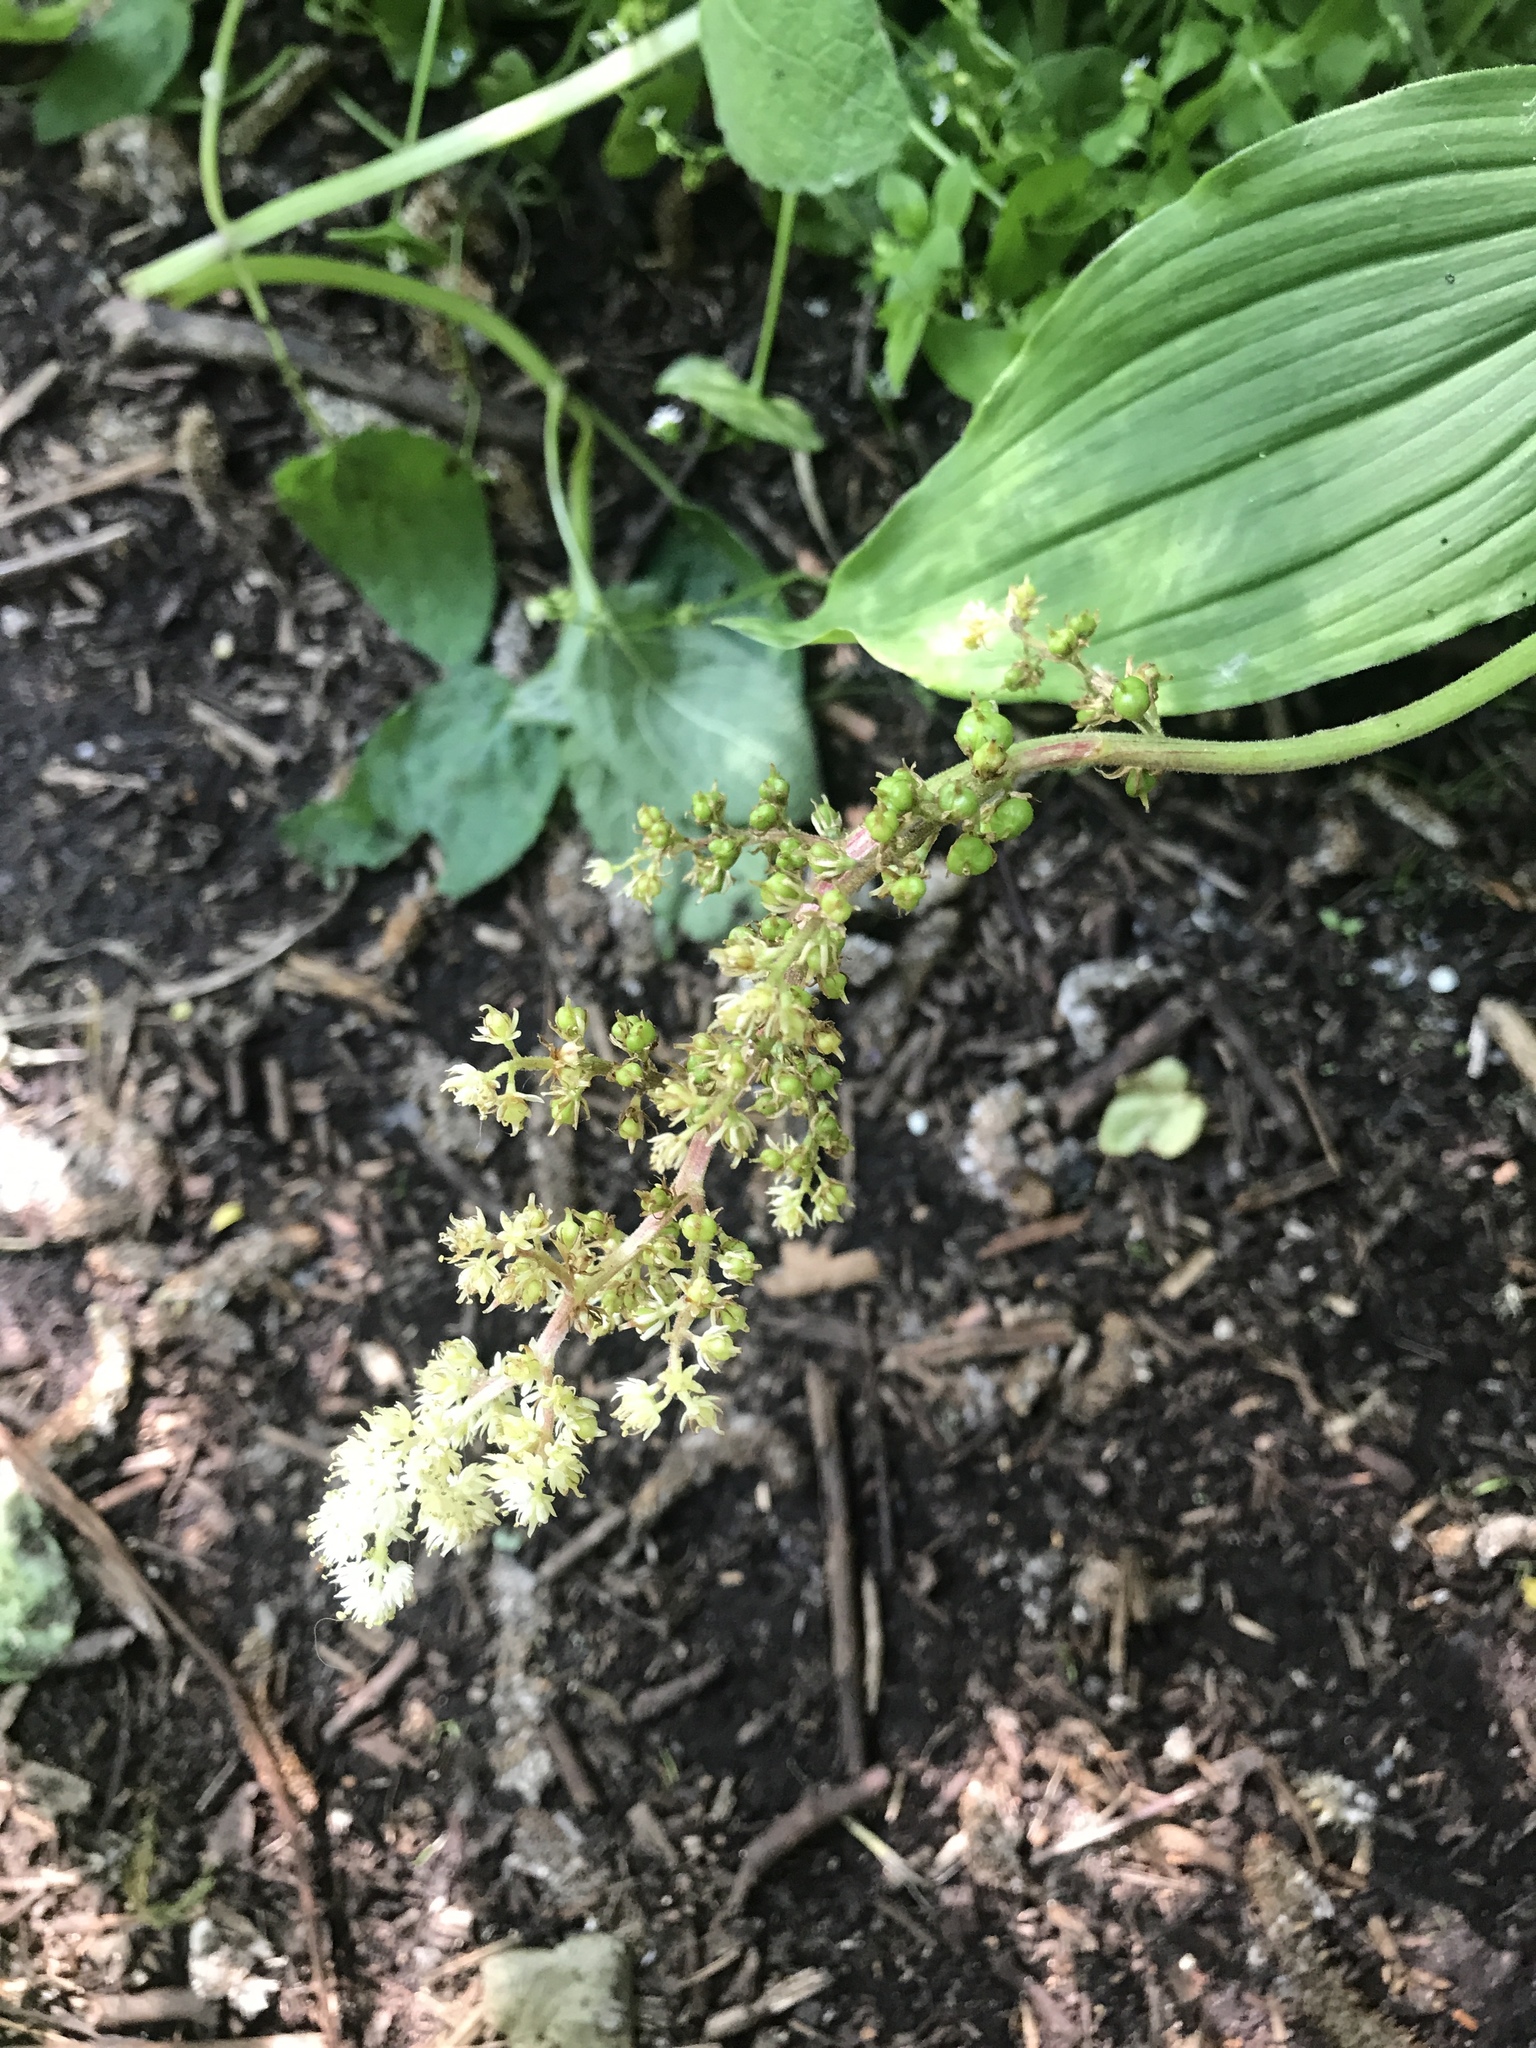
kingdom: Plantae
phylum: Tracheophyta
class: Liliopsida
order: Asparagales
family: Asparagaceae
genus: Maianthemum
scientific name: Maianthemum racemosum
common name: False spikenard
